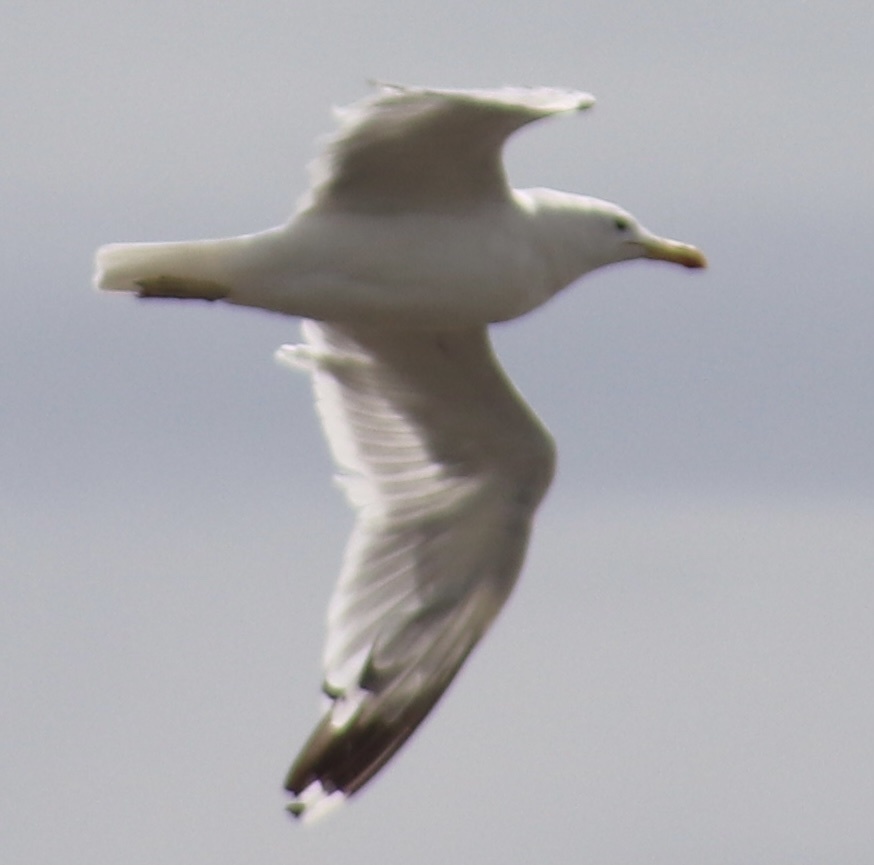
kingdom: Animalia
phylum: Chordata
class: Aves
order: Charadriiformes
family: Laridae
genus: Larus
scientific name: Larus californicus
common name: California gull
